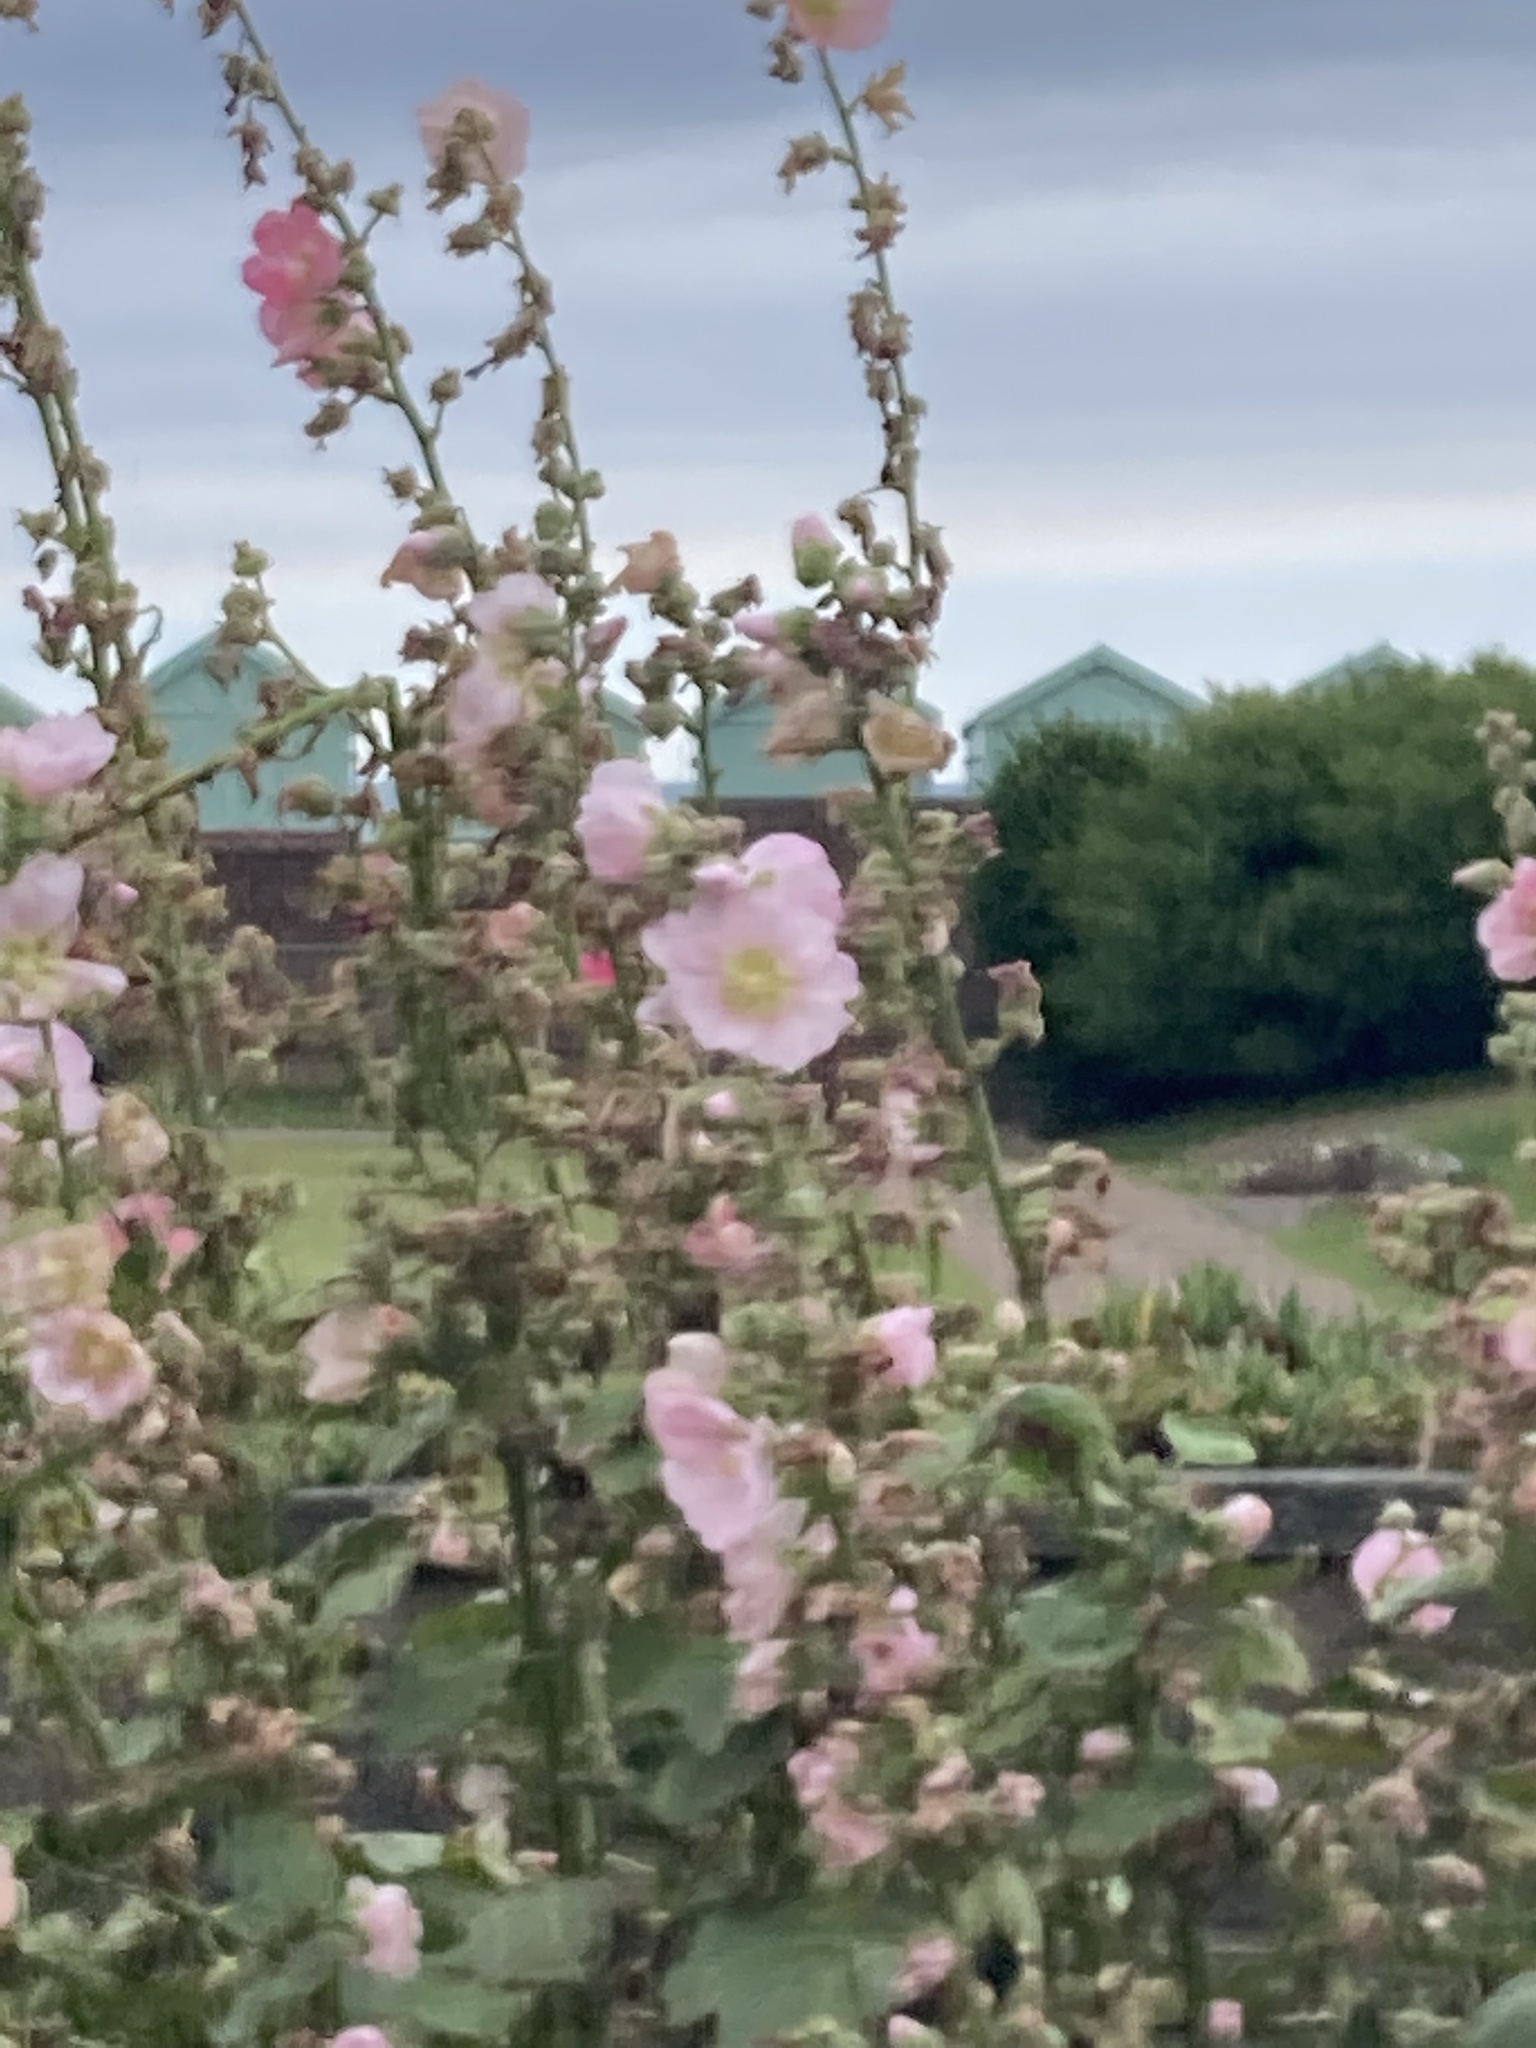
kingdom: Plantae
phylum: Tracheophyta
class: Magnoliopsida
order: Malvales
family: Malvaceae
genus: Alcea
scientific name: Alcea rosea
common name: Hollyhock
